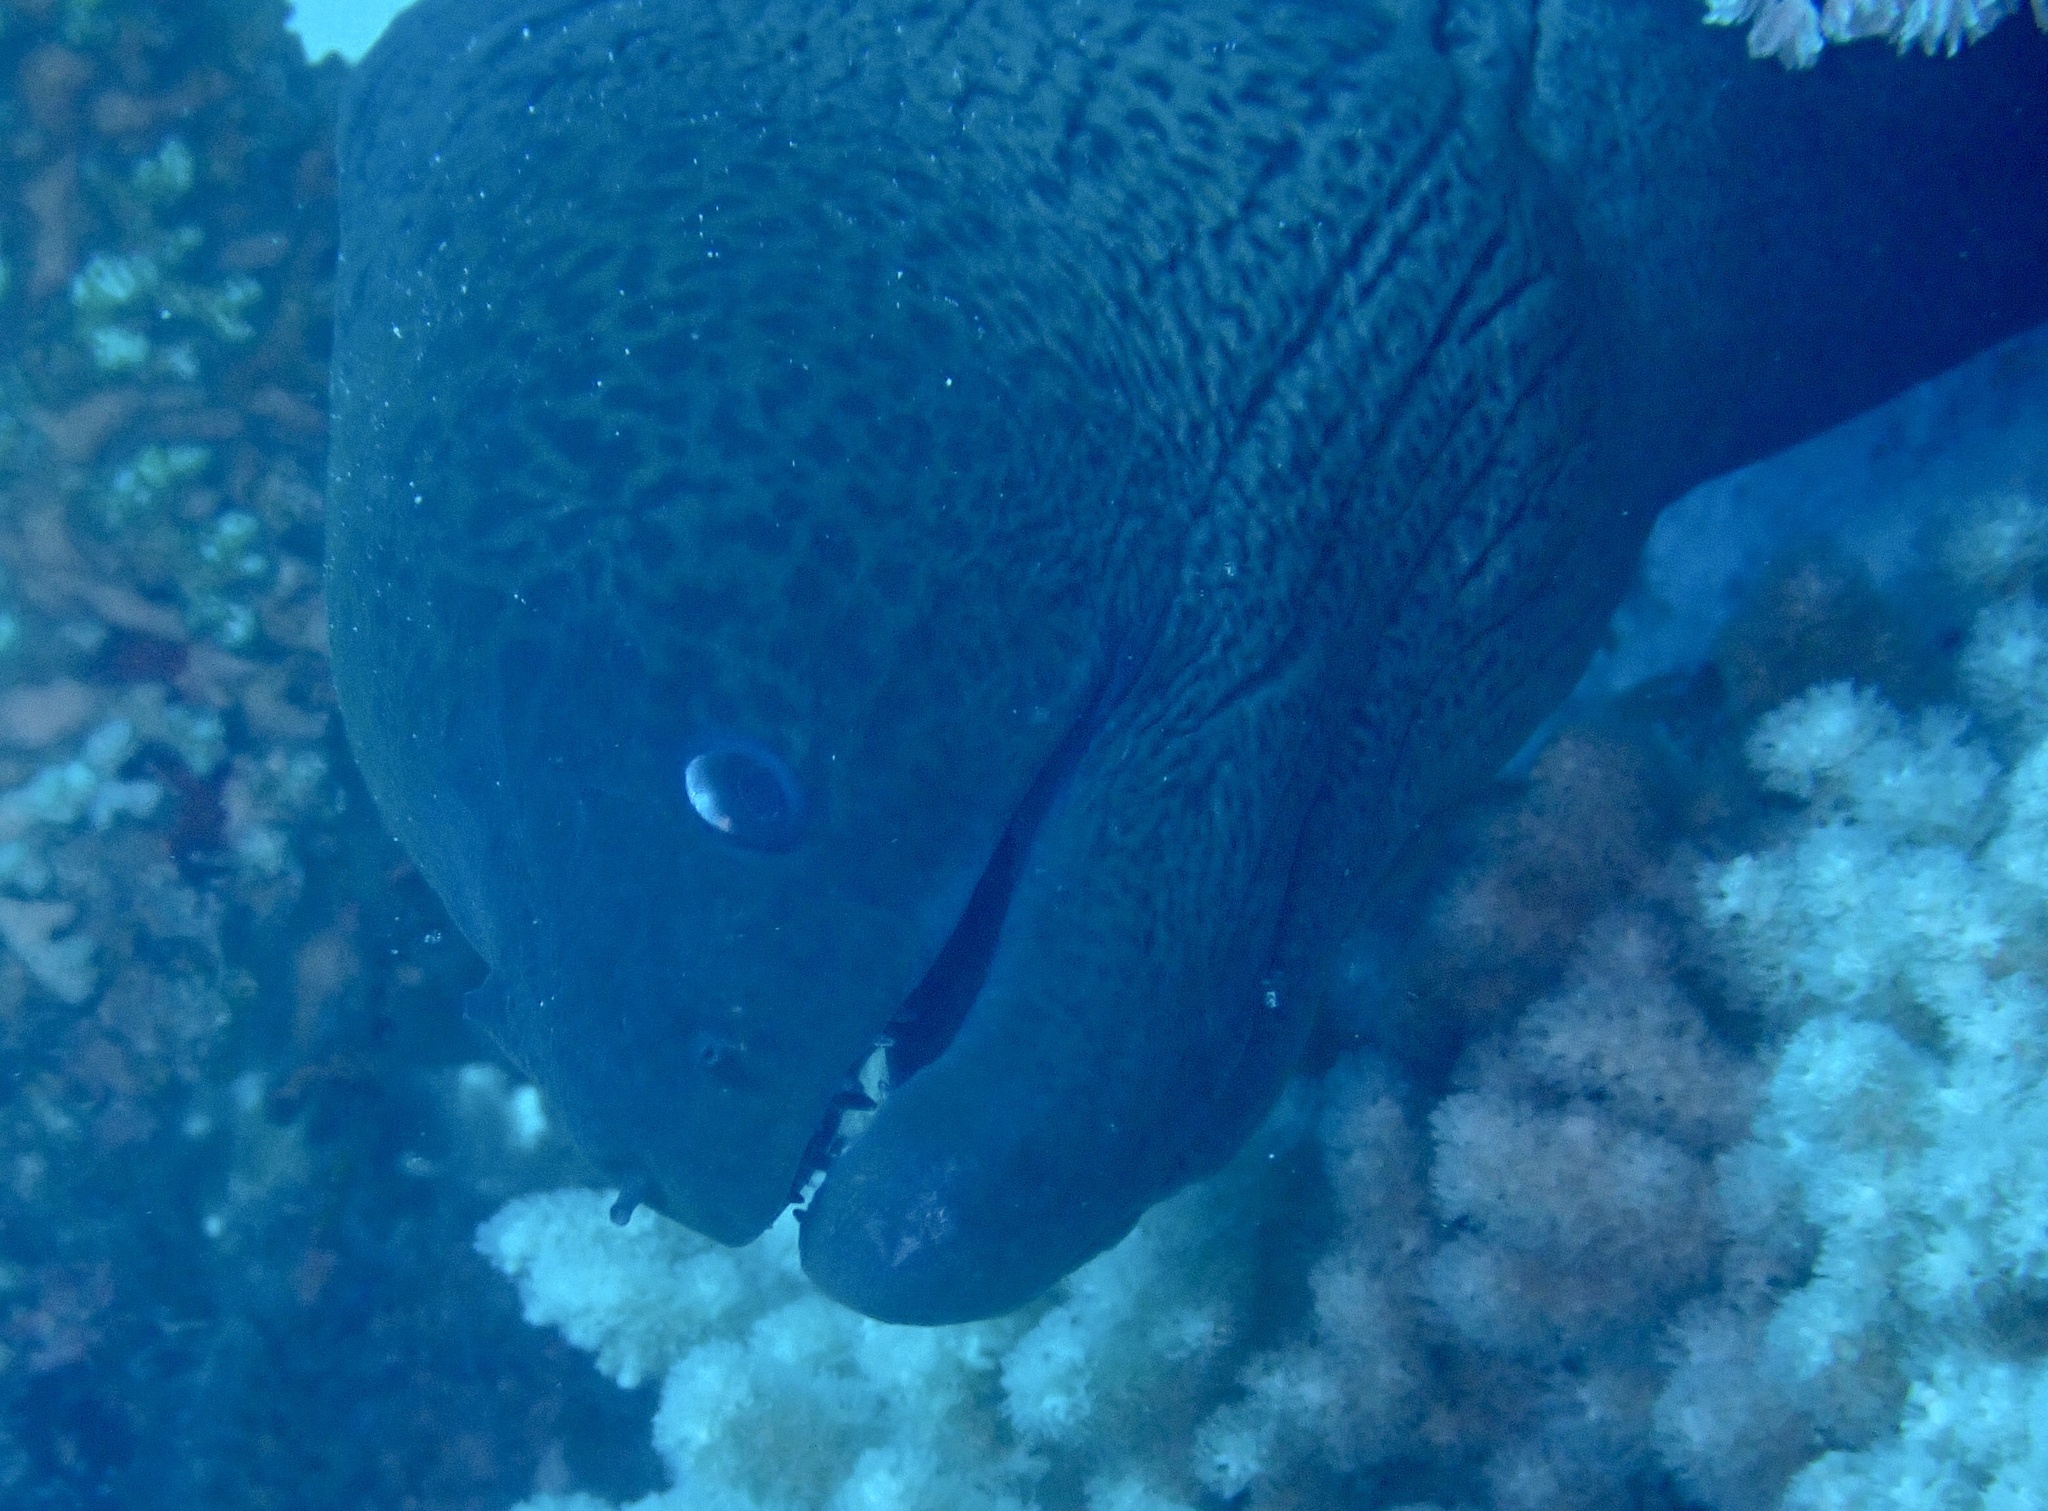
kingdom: Animalia
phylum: Chordata
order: Anguilliformes
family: Muraenidae
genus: Gymnothorax
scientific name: Gymnothorax javanicus
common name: Giant moray
